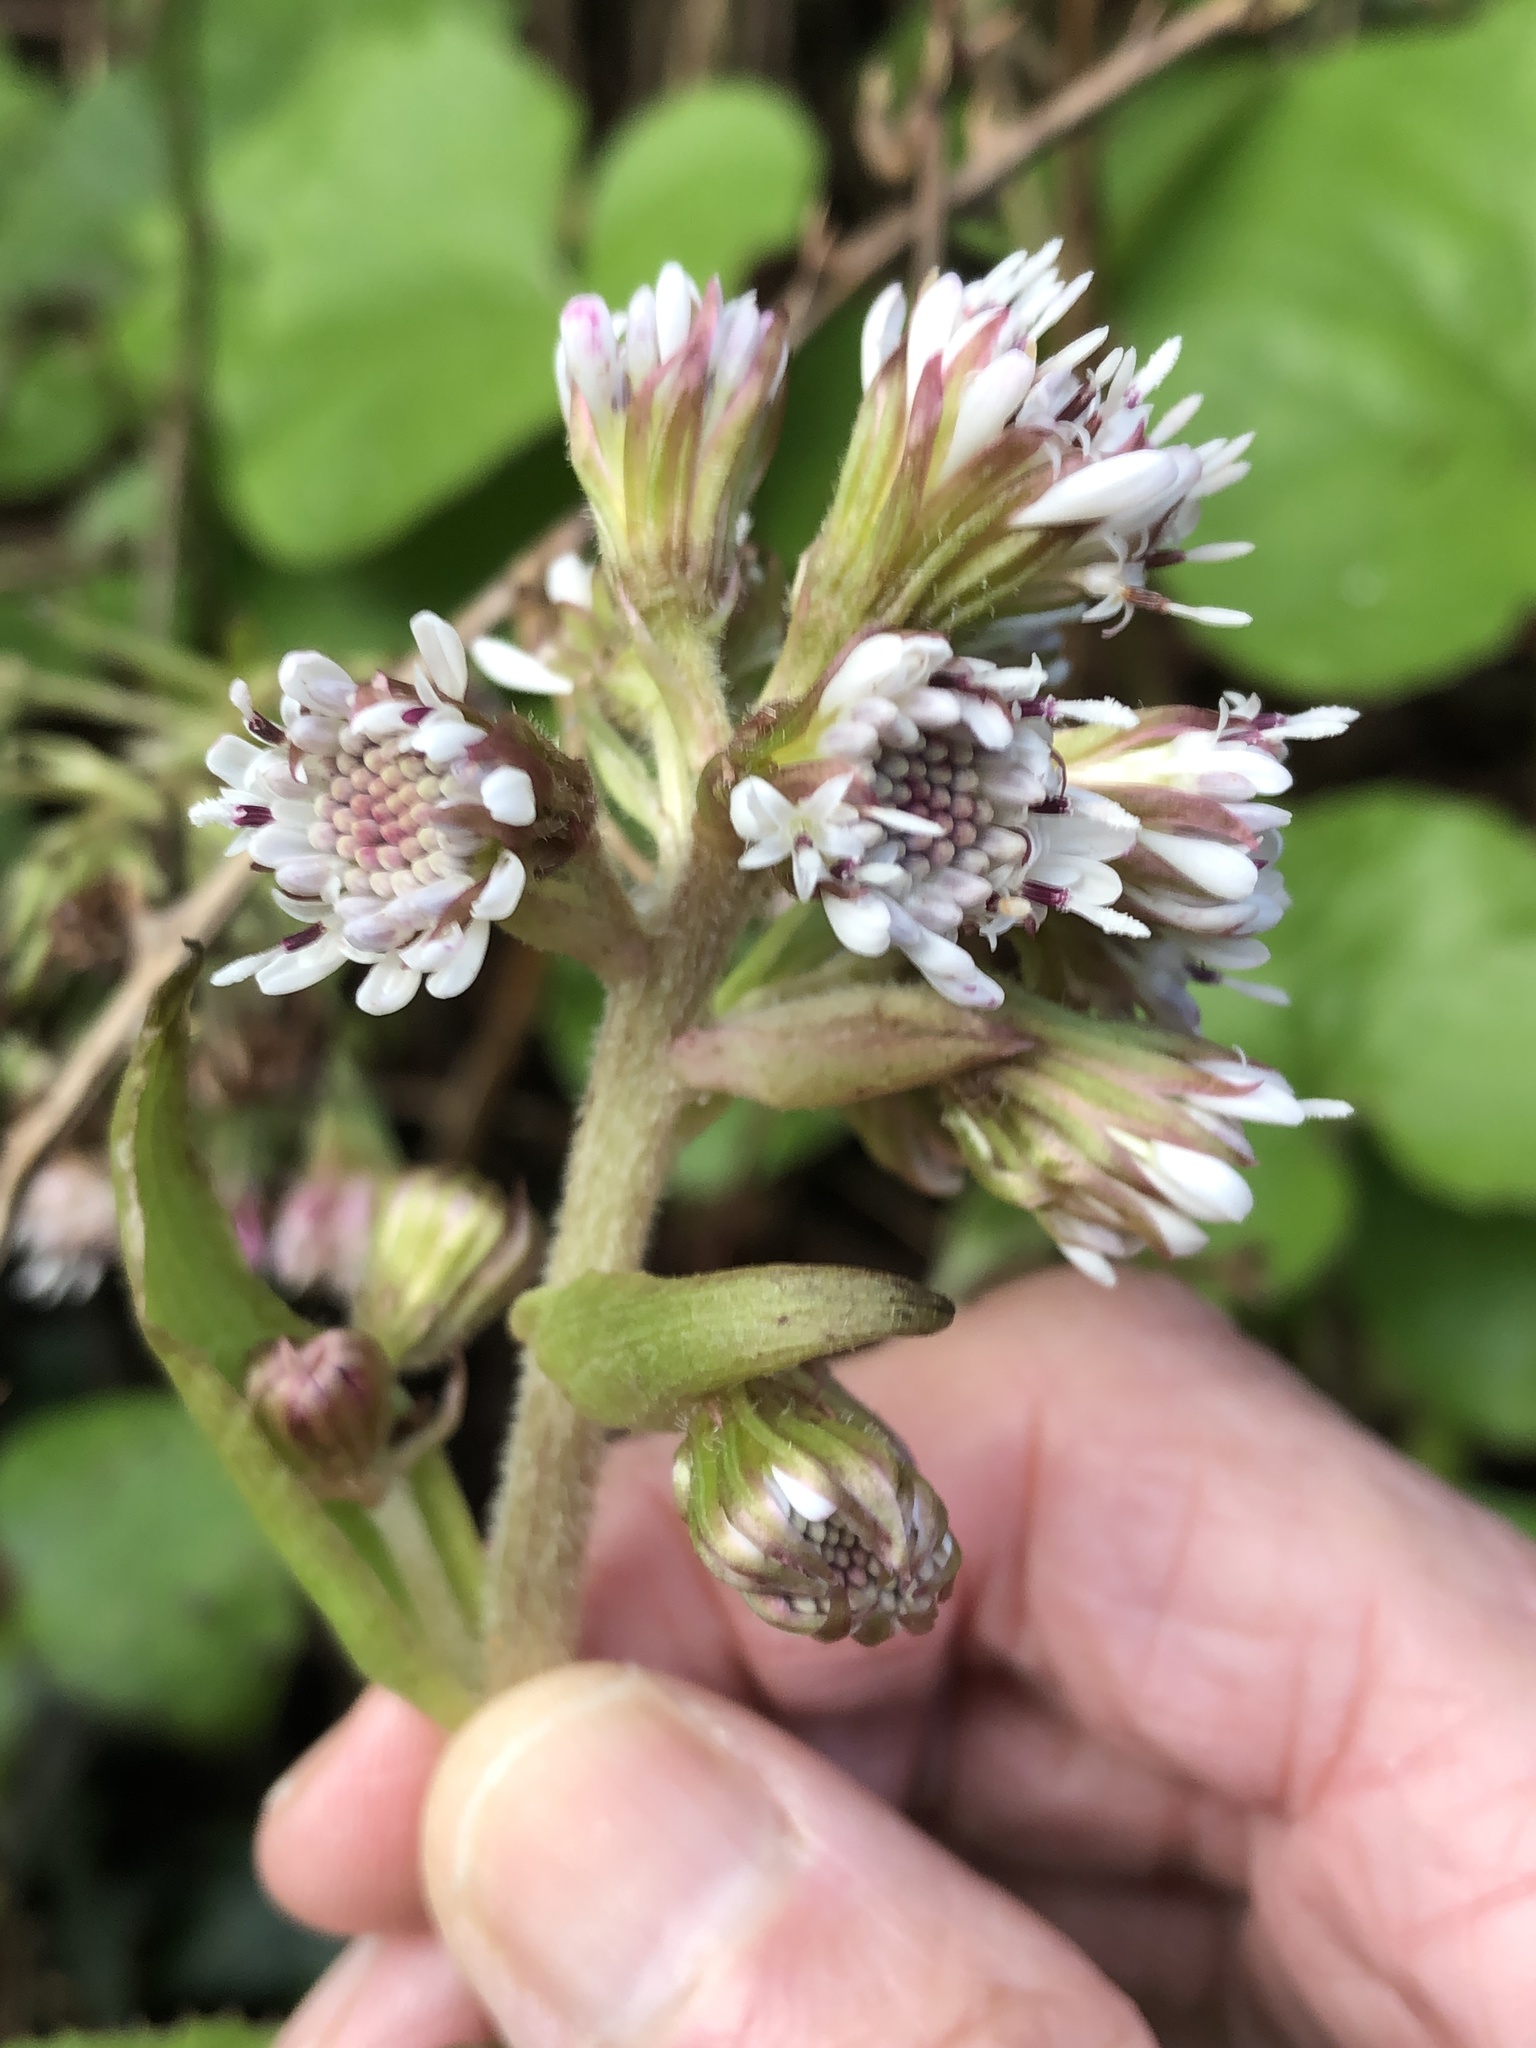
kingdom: Plantae
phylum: Tracheophyta
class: Magnoliopsida
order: Asterales
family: Asteraceae
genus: Petasites
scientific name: Petasites pyrenaicus
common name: Winter heliotrope
